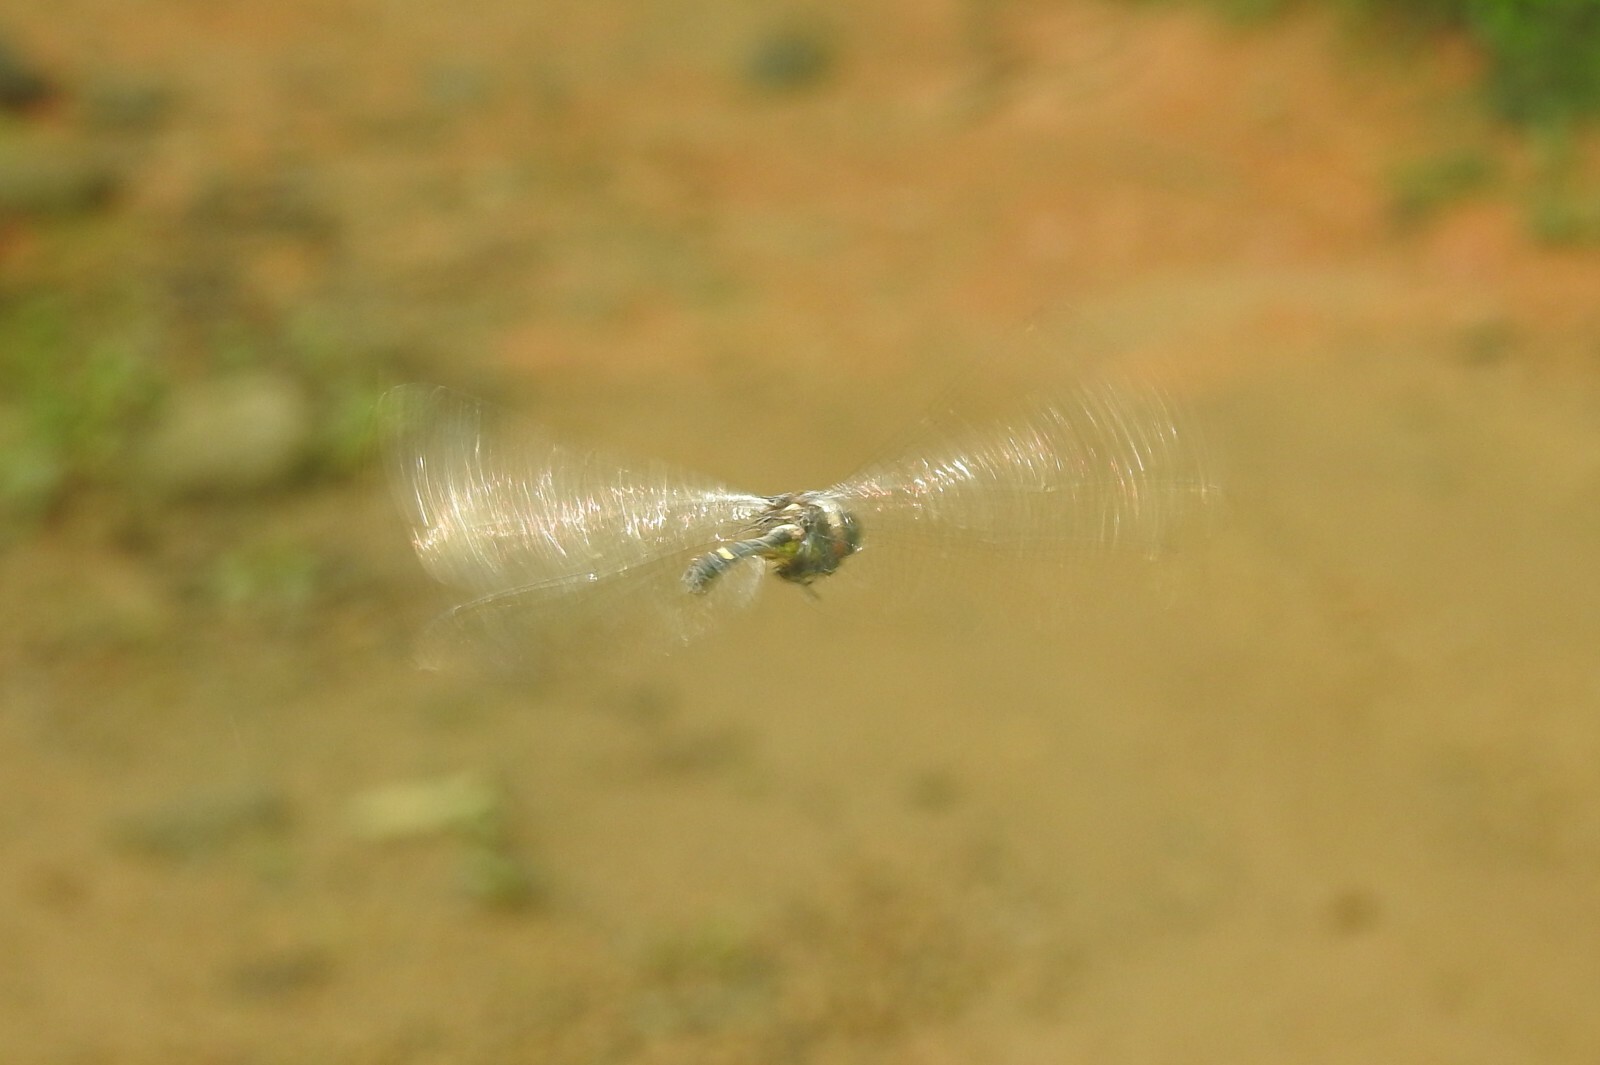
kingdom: Animalia
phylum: Arthropoda
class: Insecta
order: Odonata
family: Libellulidae
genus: Zygonyx
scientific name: Zygonyx iris
